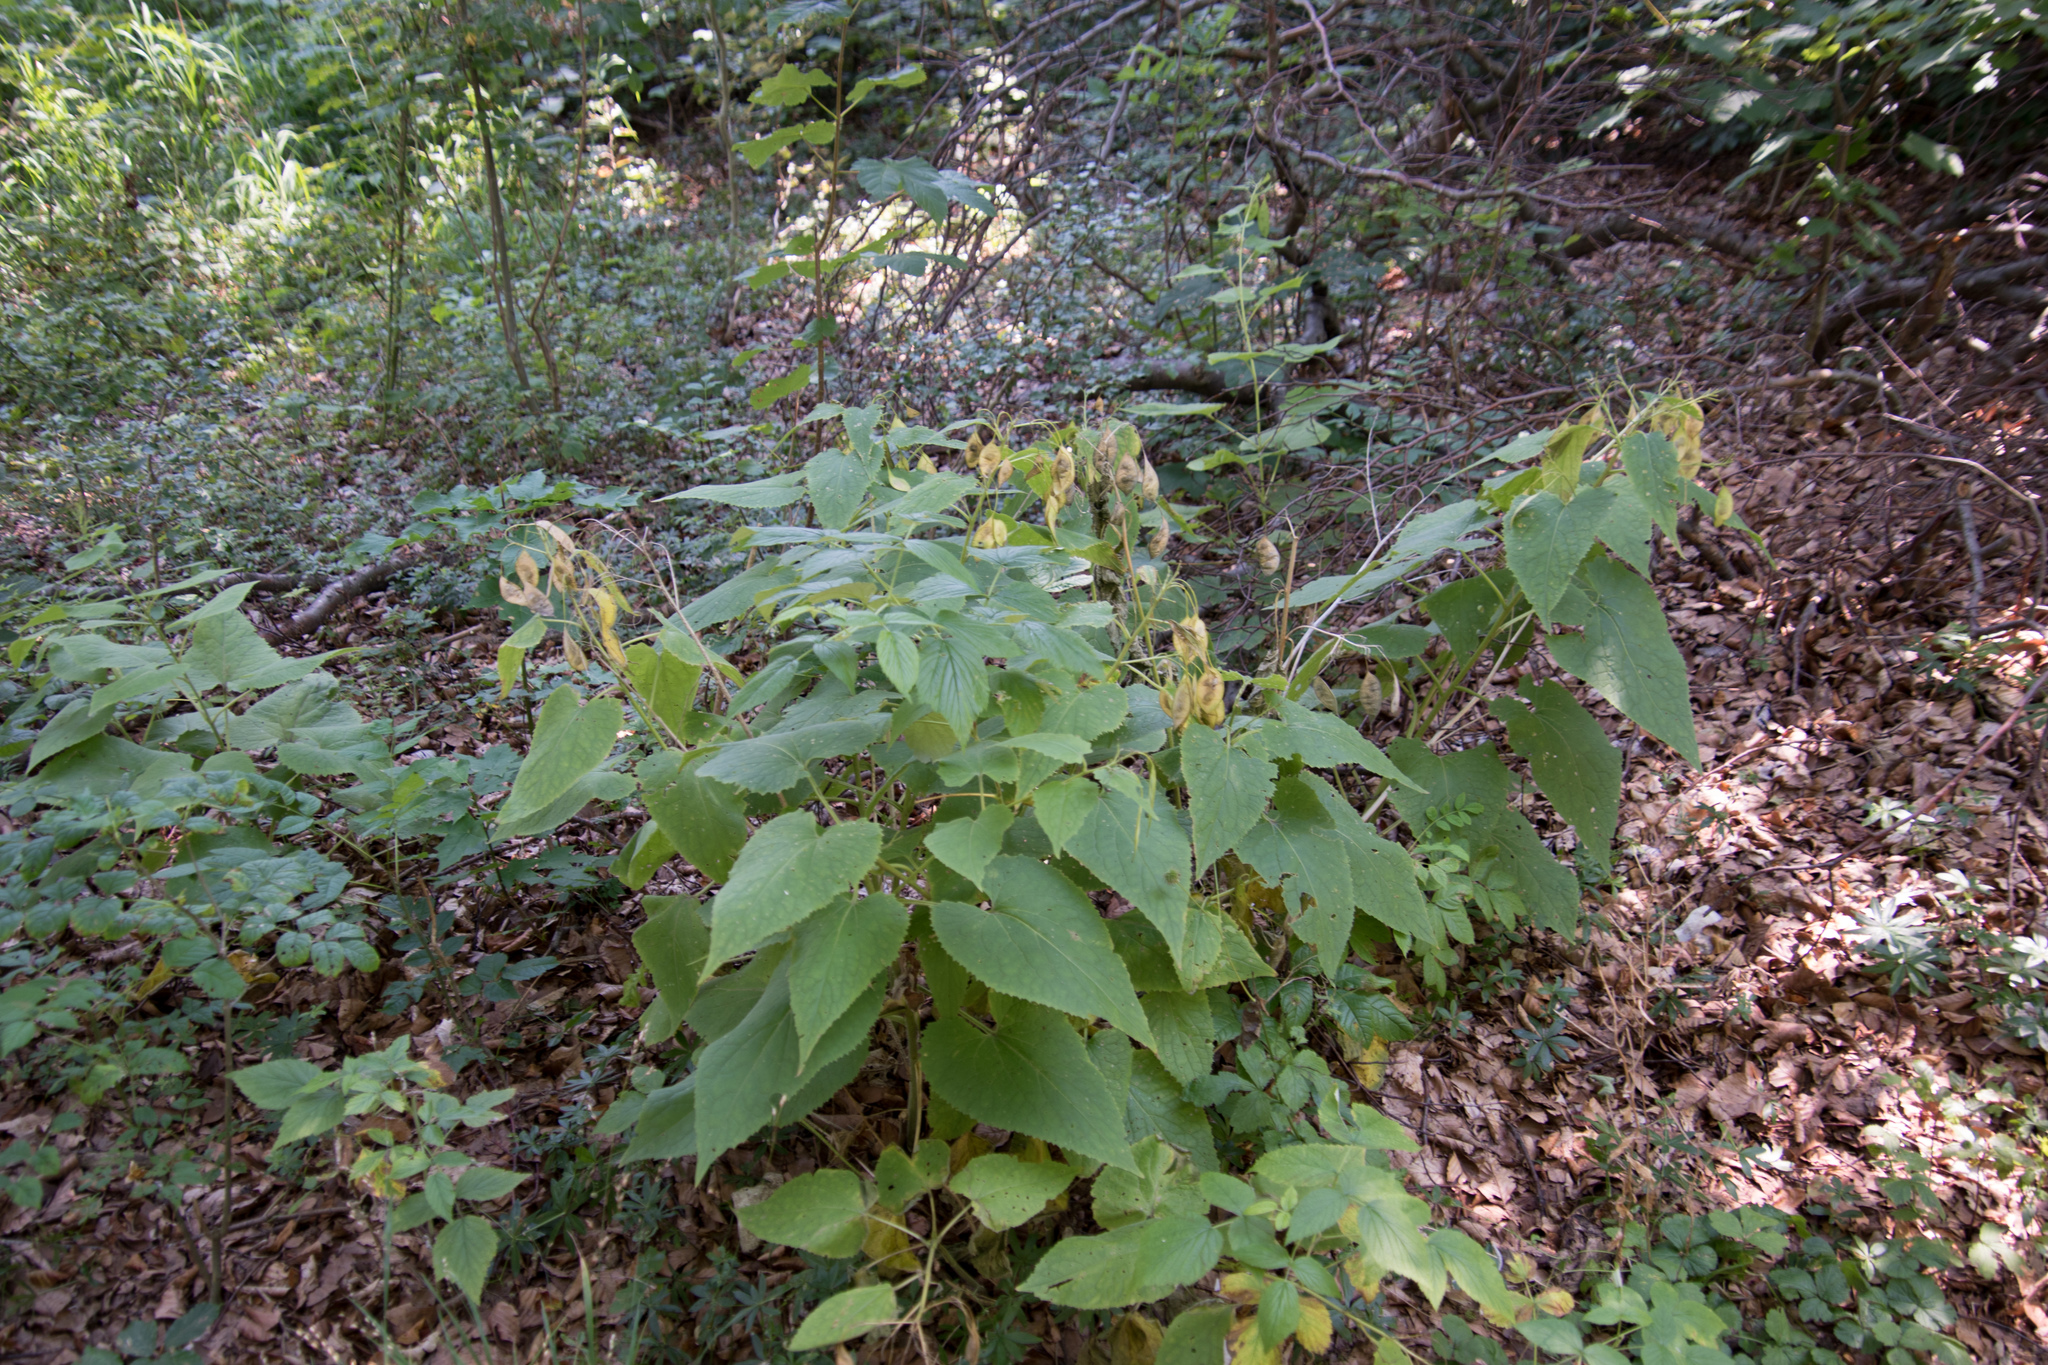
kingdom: Plantae
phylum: Tracheophyta
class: Magnoliopsida
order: Brassicales
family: Brassicaceae
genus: Lunaria
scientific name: Lunaria rediviva
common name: Perennial honesty
